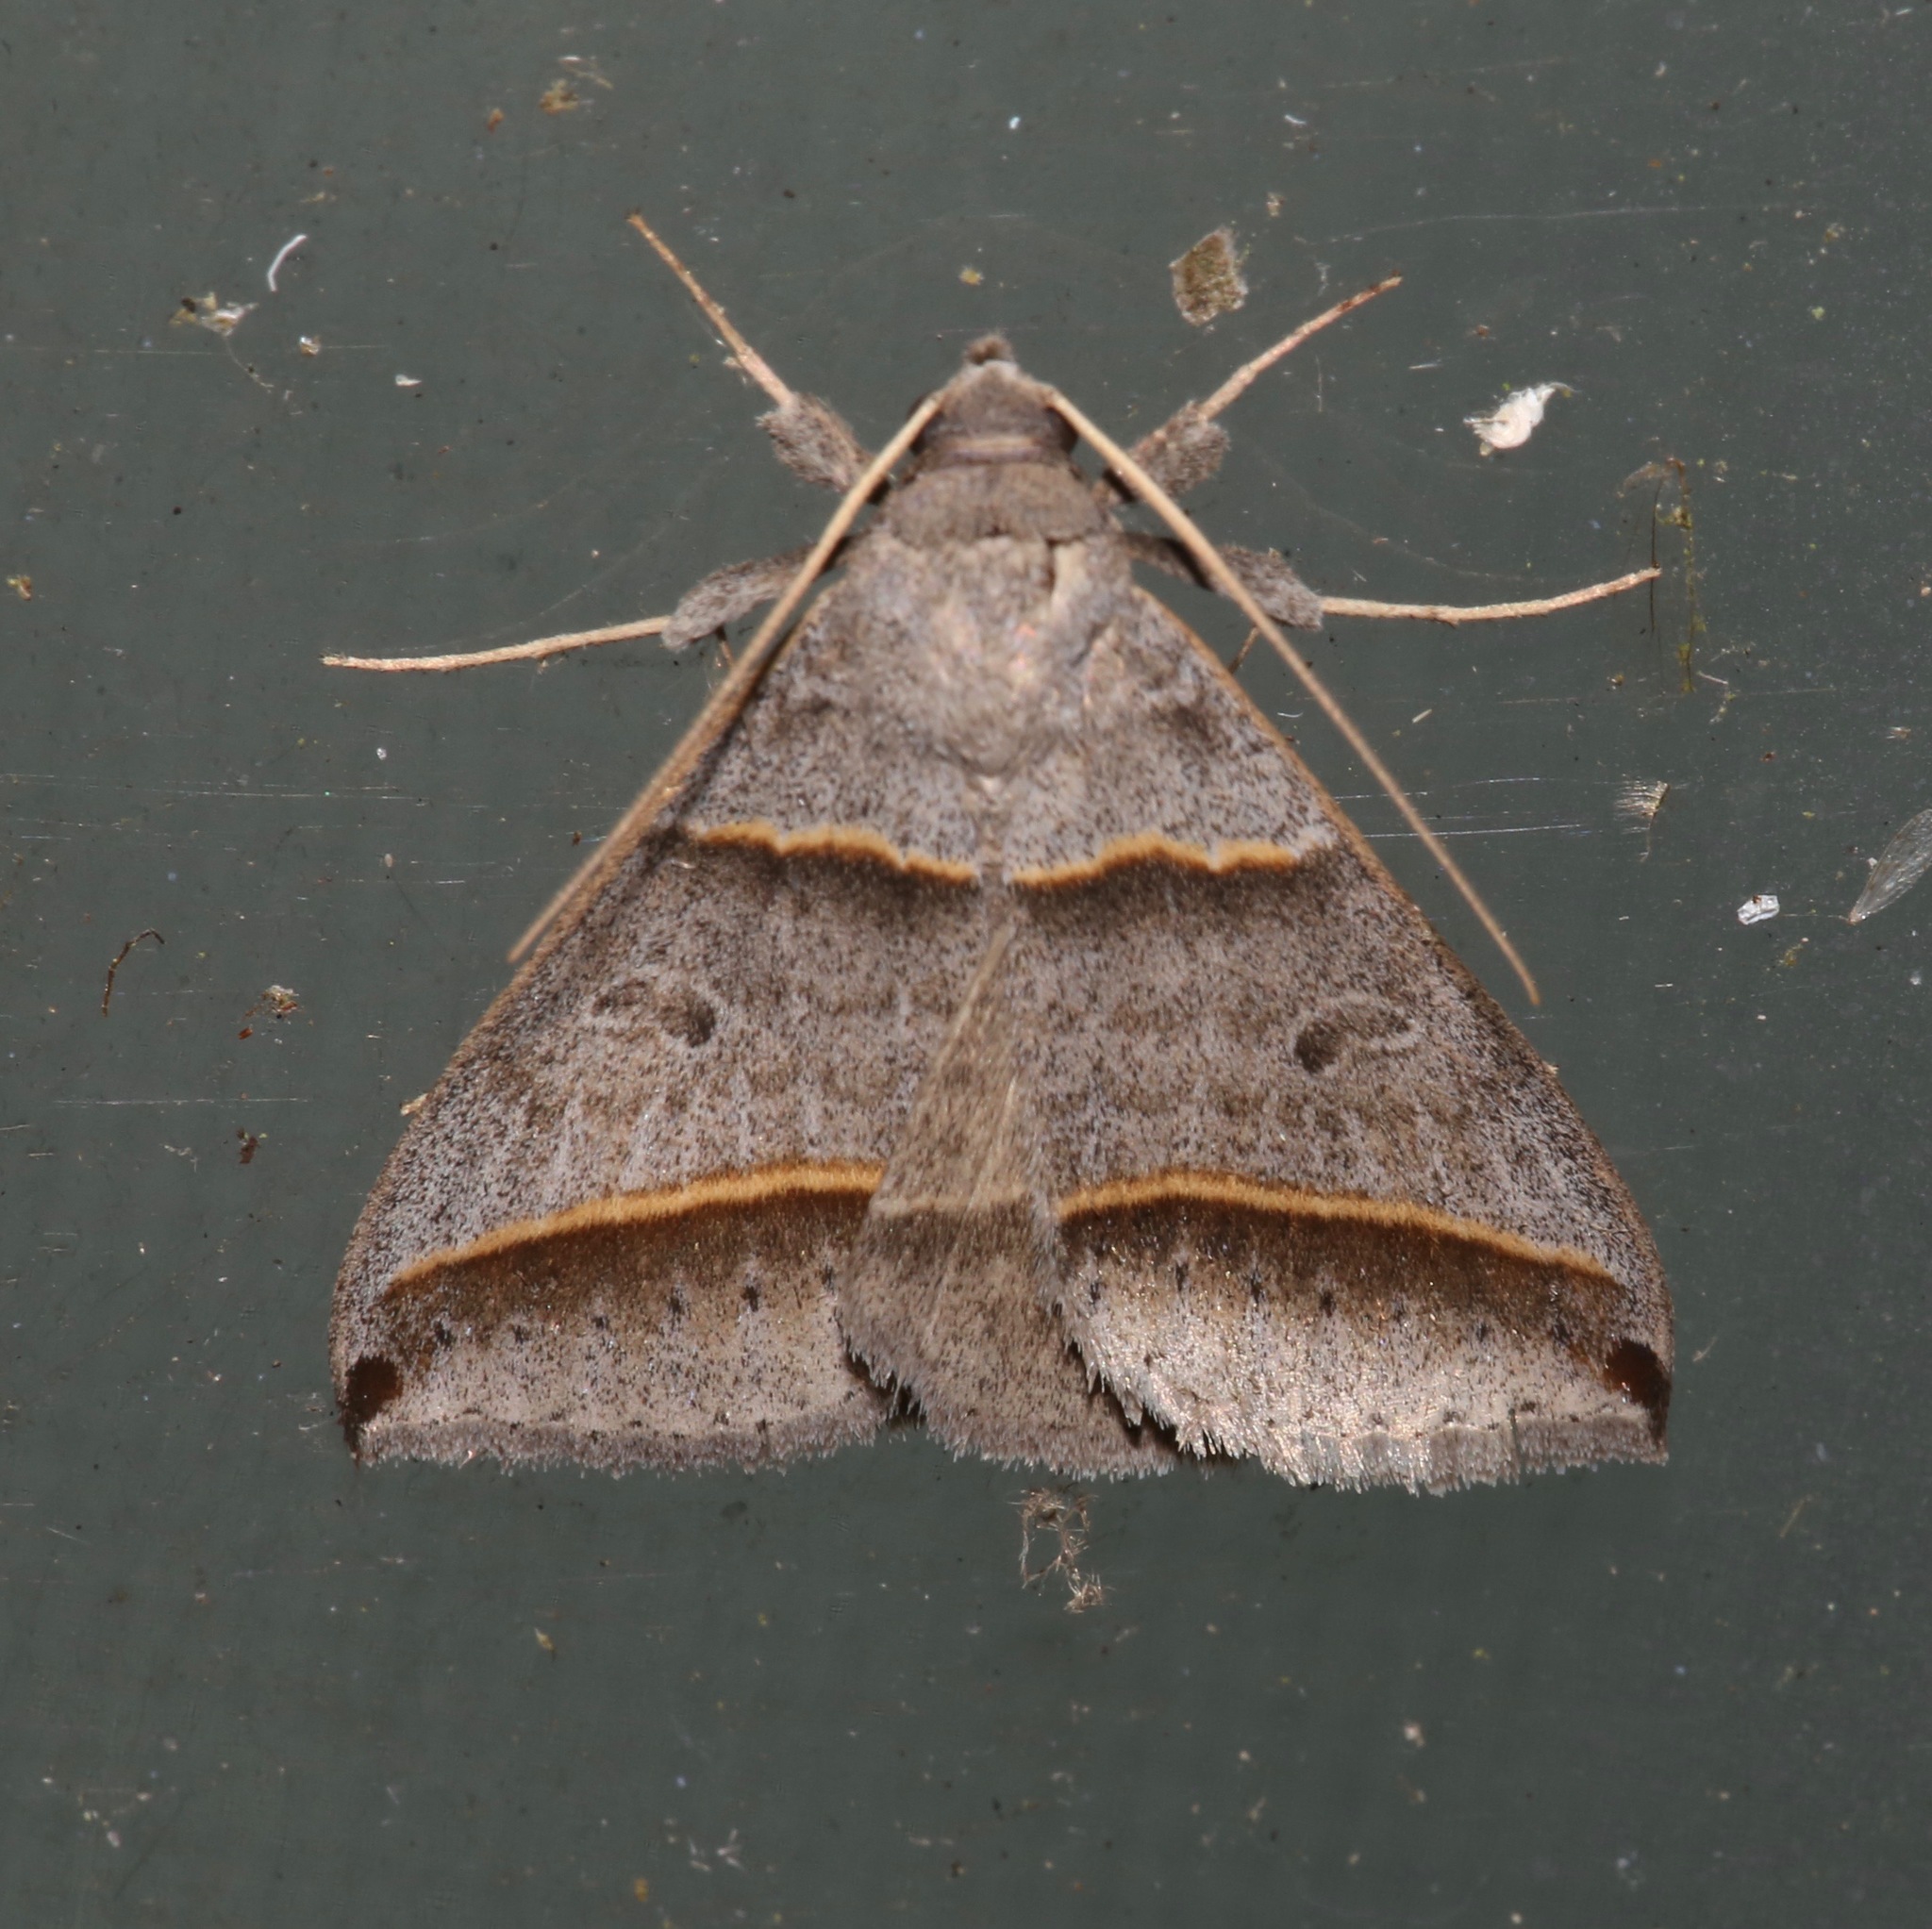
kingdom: Animalia
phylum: Arthropoda
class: Insecta
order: Lepidoptera
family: Erebidae
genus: Ptichodis
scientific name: Ptichodis vinculum
